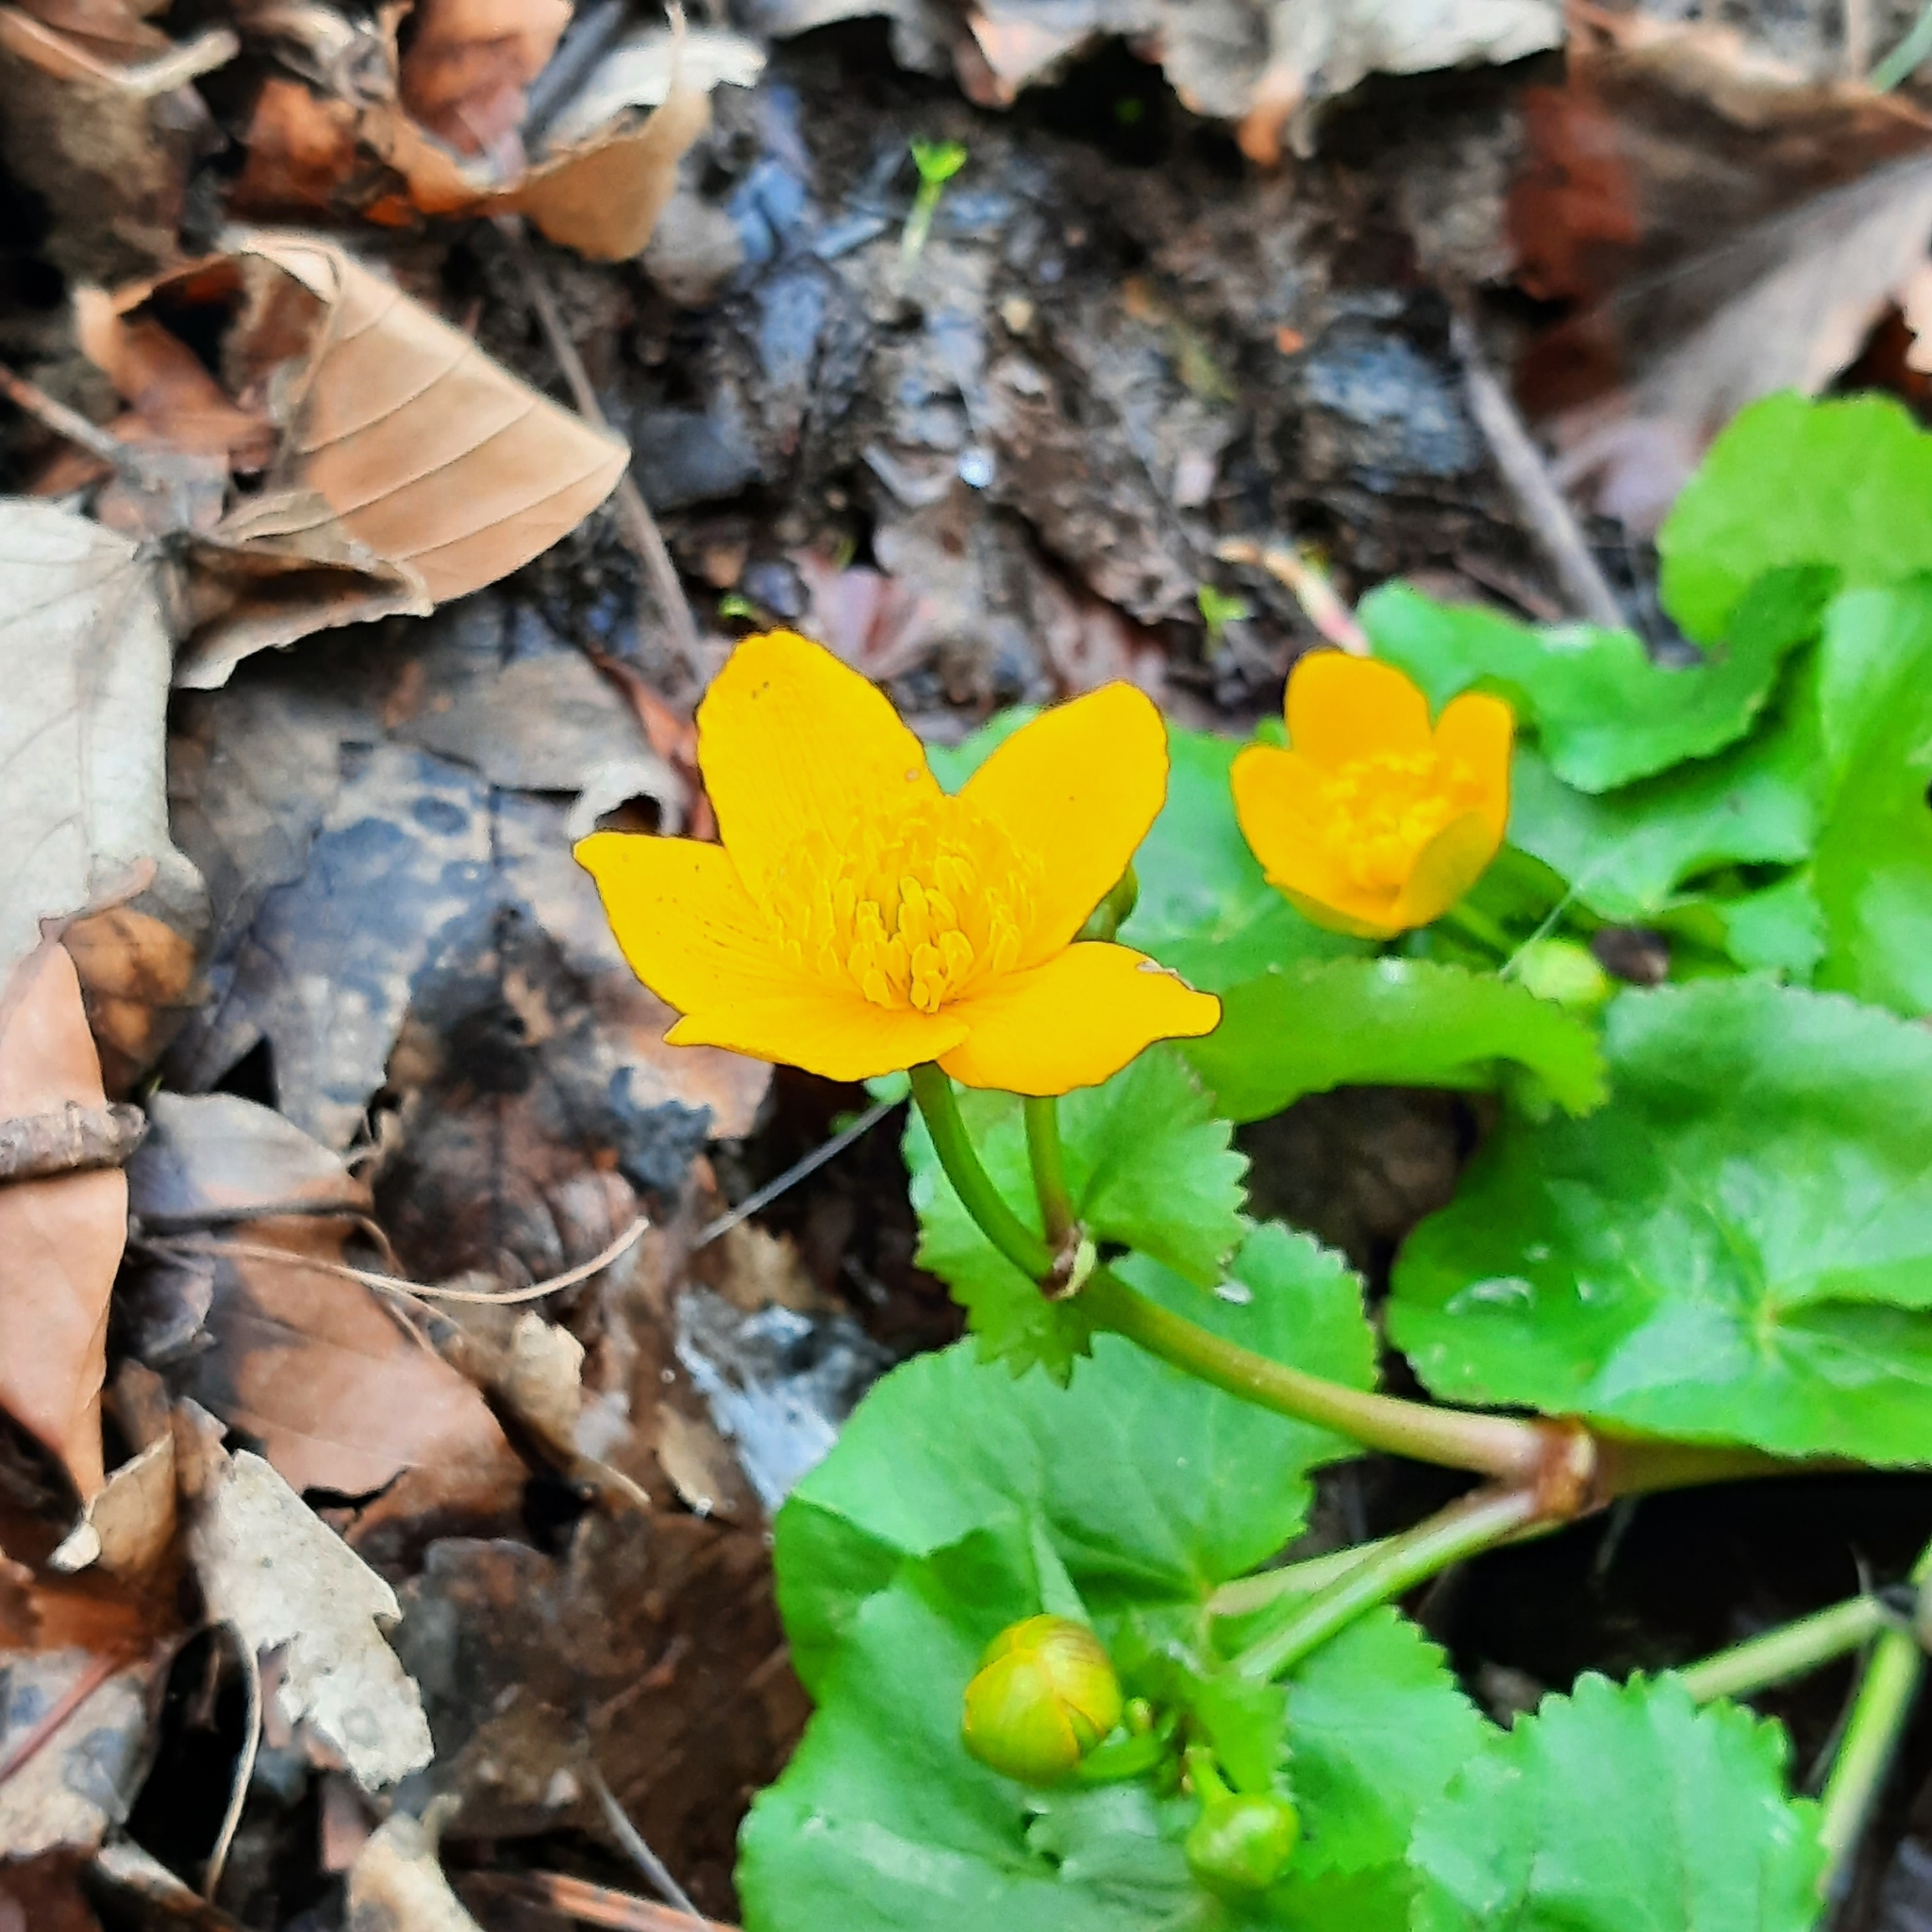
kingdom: Plantae
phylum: Tracheophyta
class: Magnoliopsida
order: Ranunculales
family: Ranunculaceae
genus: Caltha
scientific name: Caltha palustris
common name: Marsh marigold
